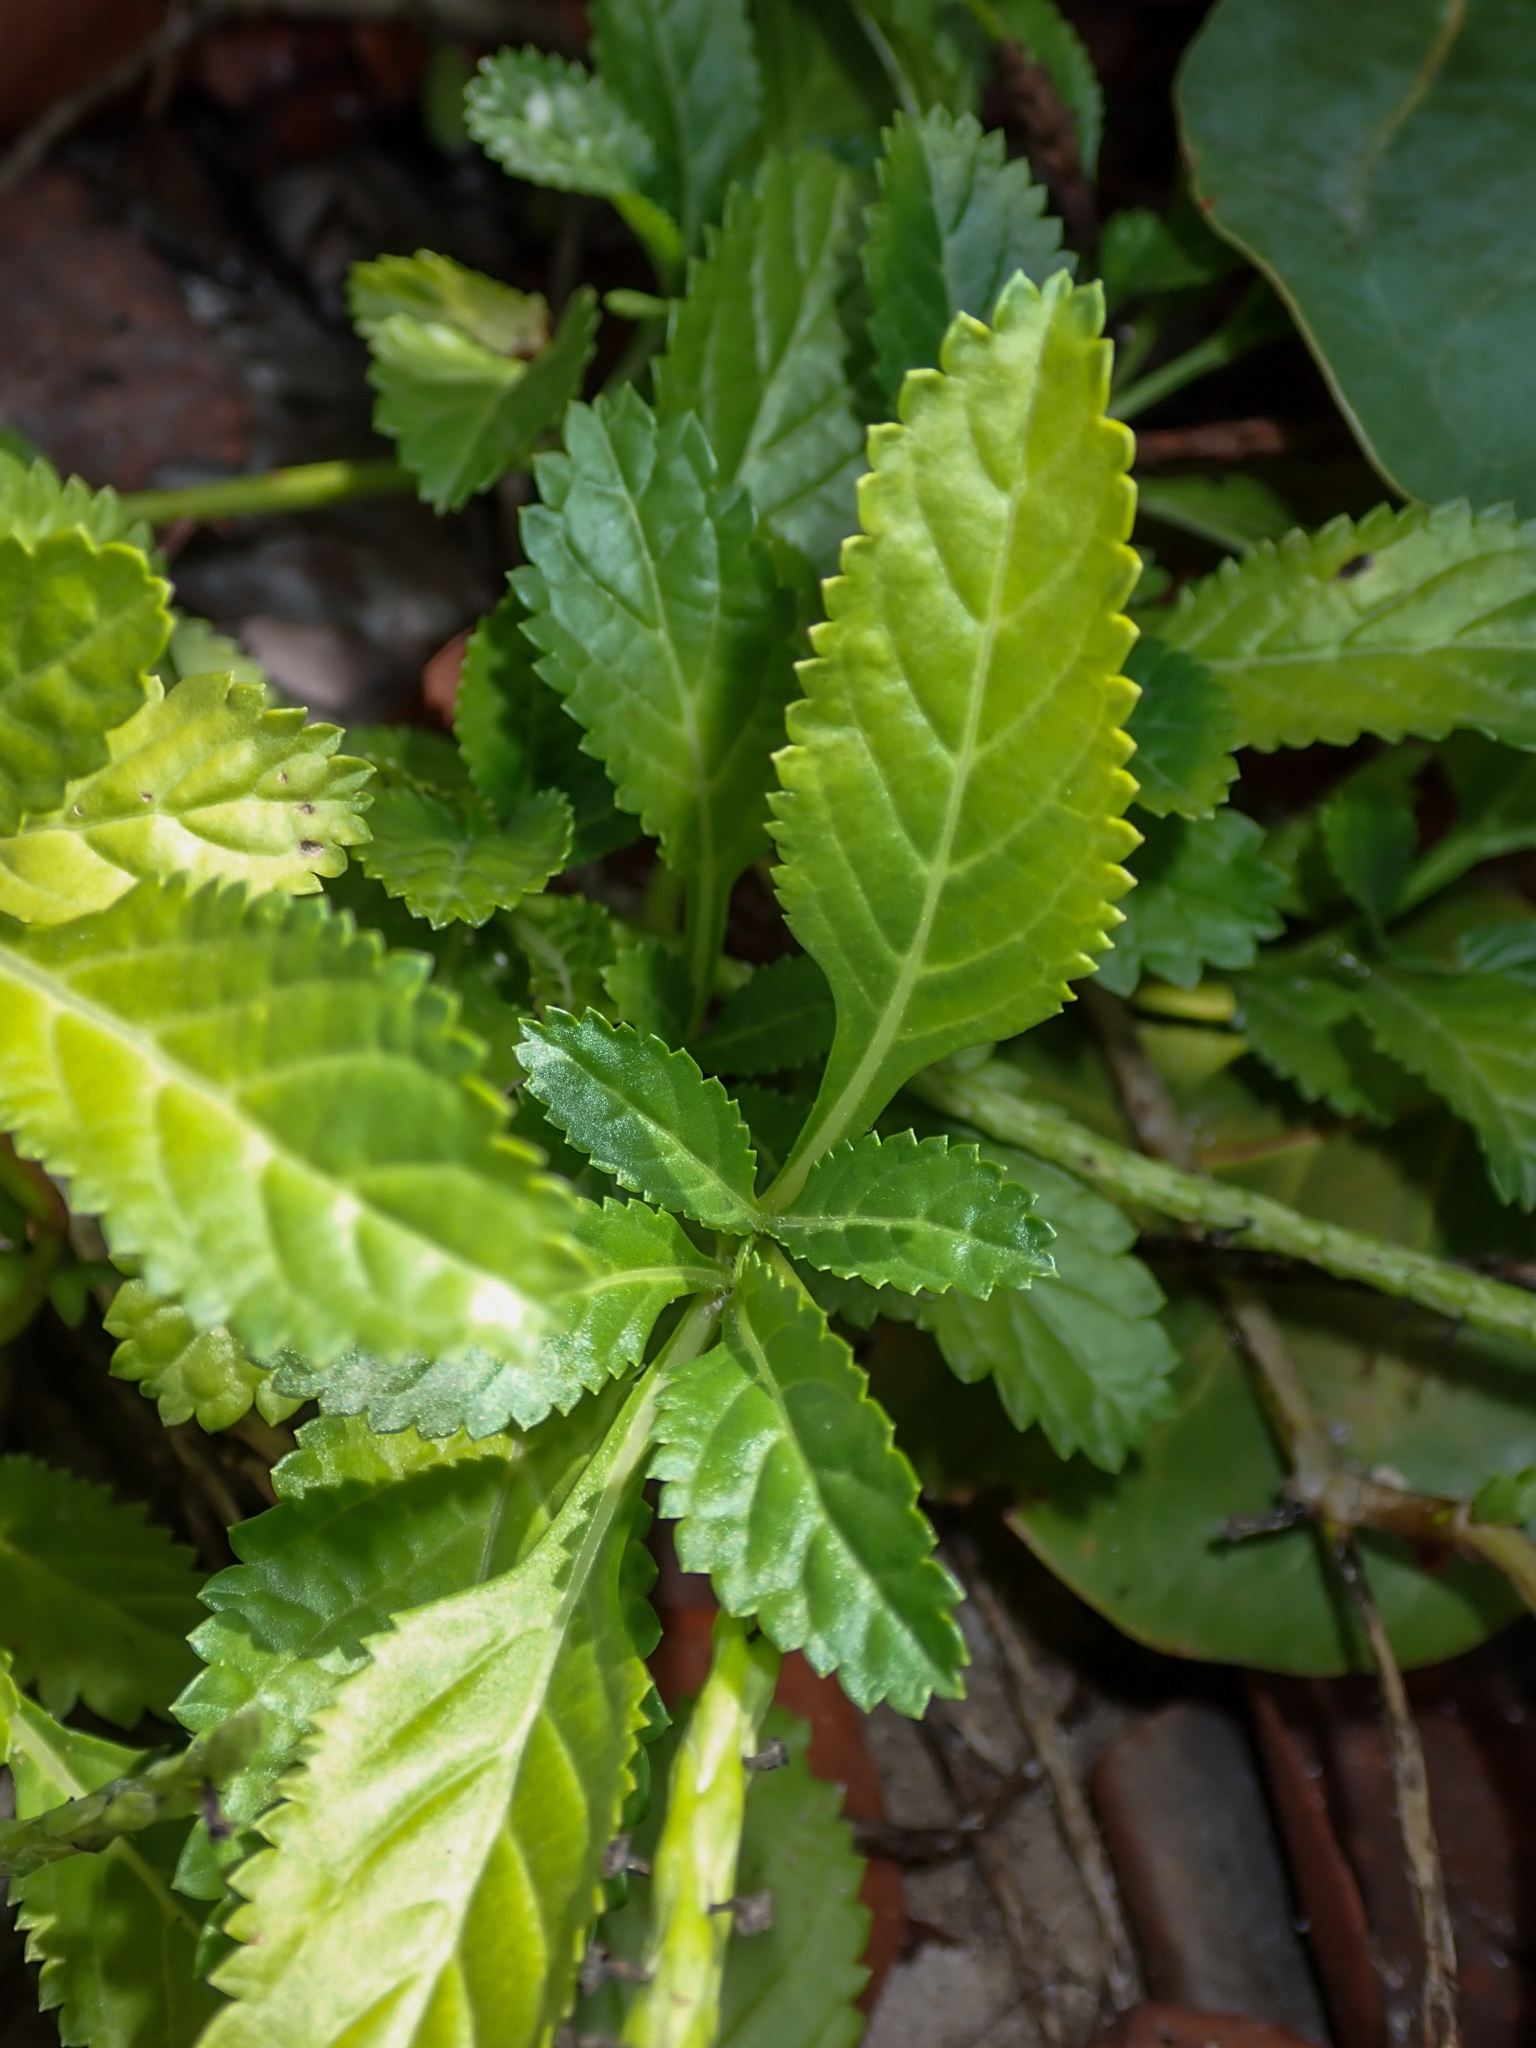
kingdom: Plantae
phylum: Tracheophyta
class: Magnoliopsida
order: Lamiales
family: Verbenaceae
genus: Stachytarpheta
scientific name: Stachytarpheta jamaicensis
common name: Light-blue snakeweed
